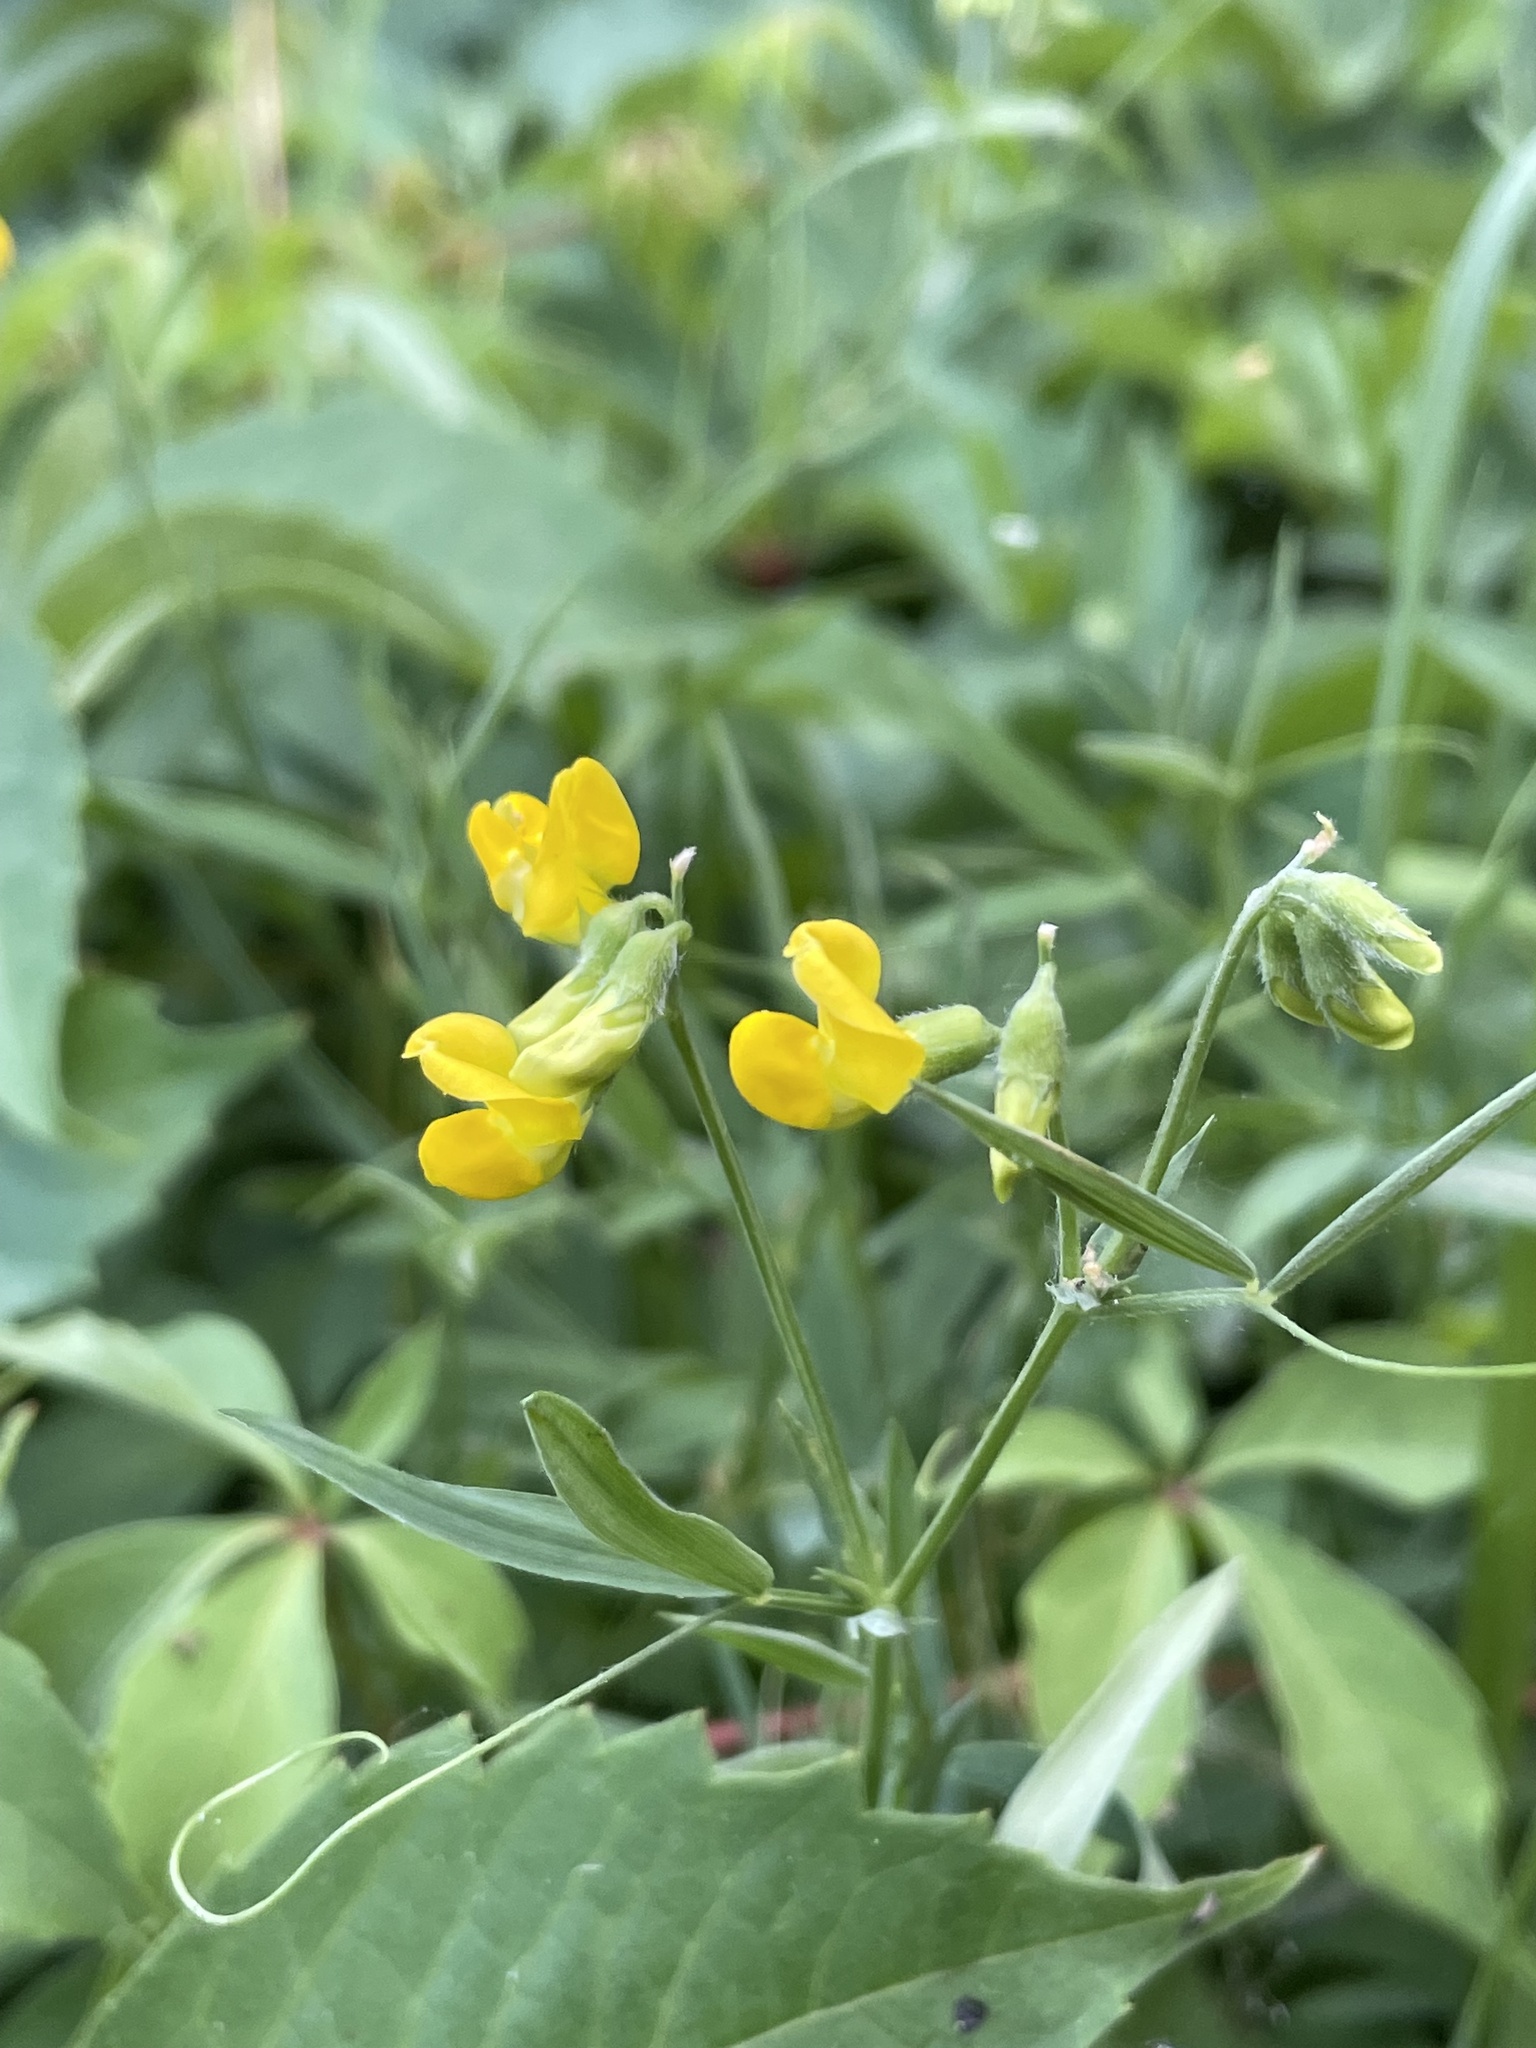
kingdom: Plantae
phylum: Tracheophyta
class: Magnoliopsida
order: Fabales
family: Fabaceae
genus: Lathyrus
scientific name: Lathyrus pratensis
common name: Meadow vetchling
